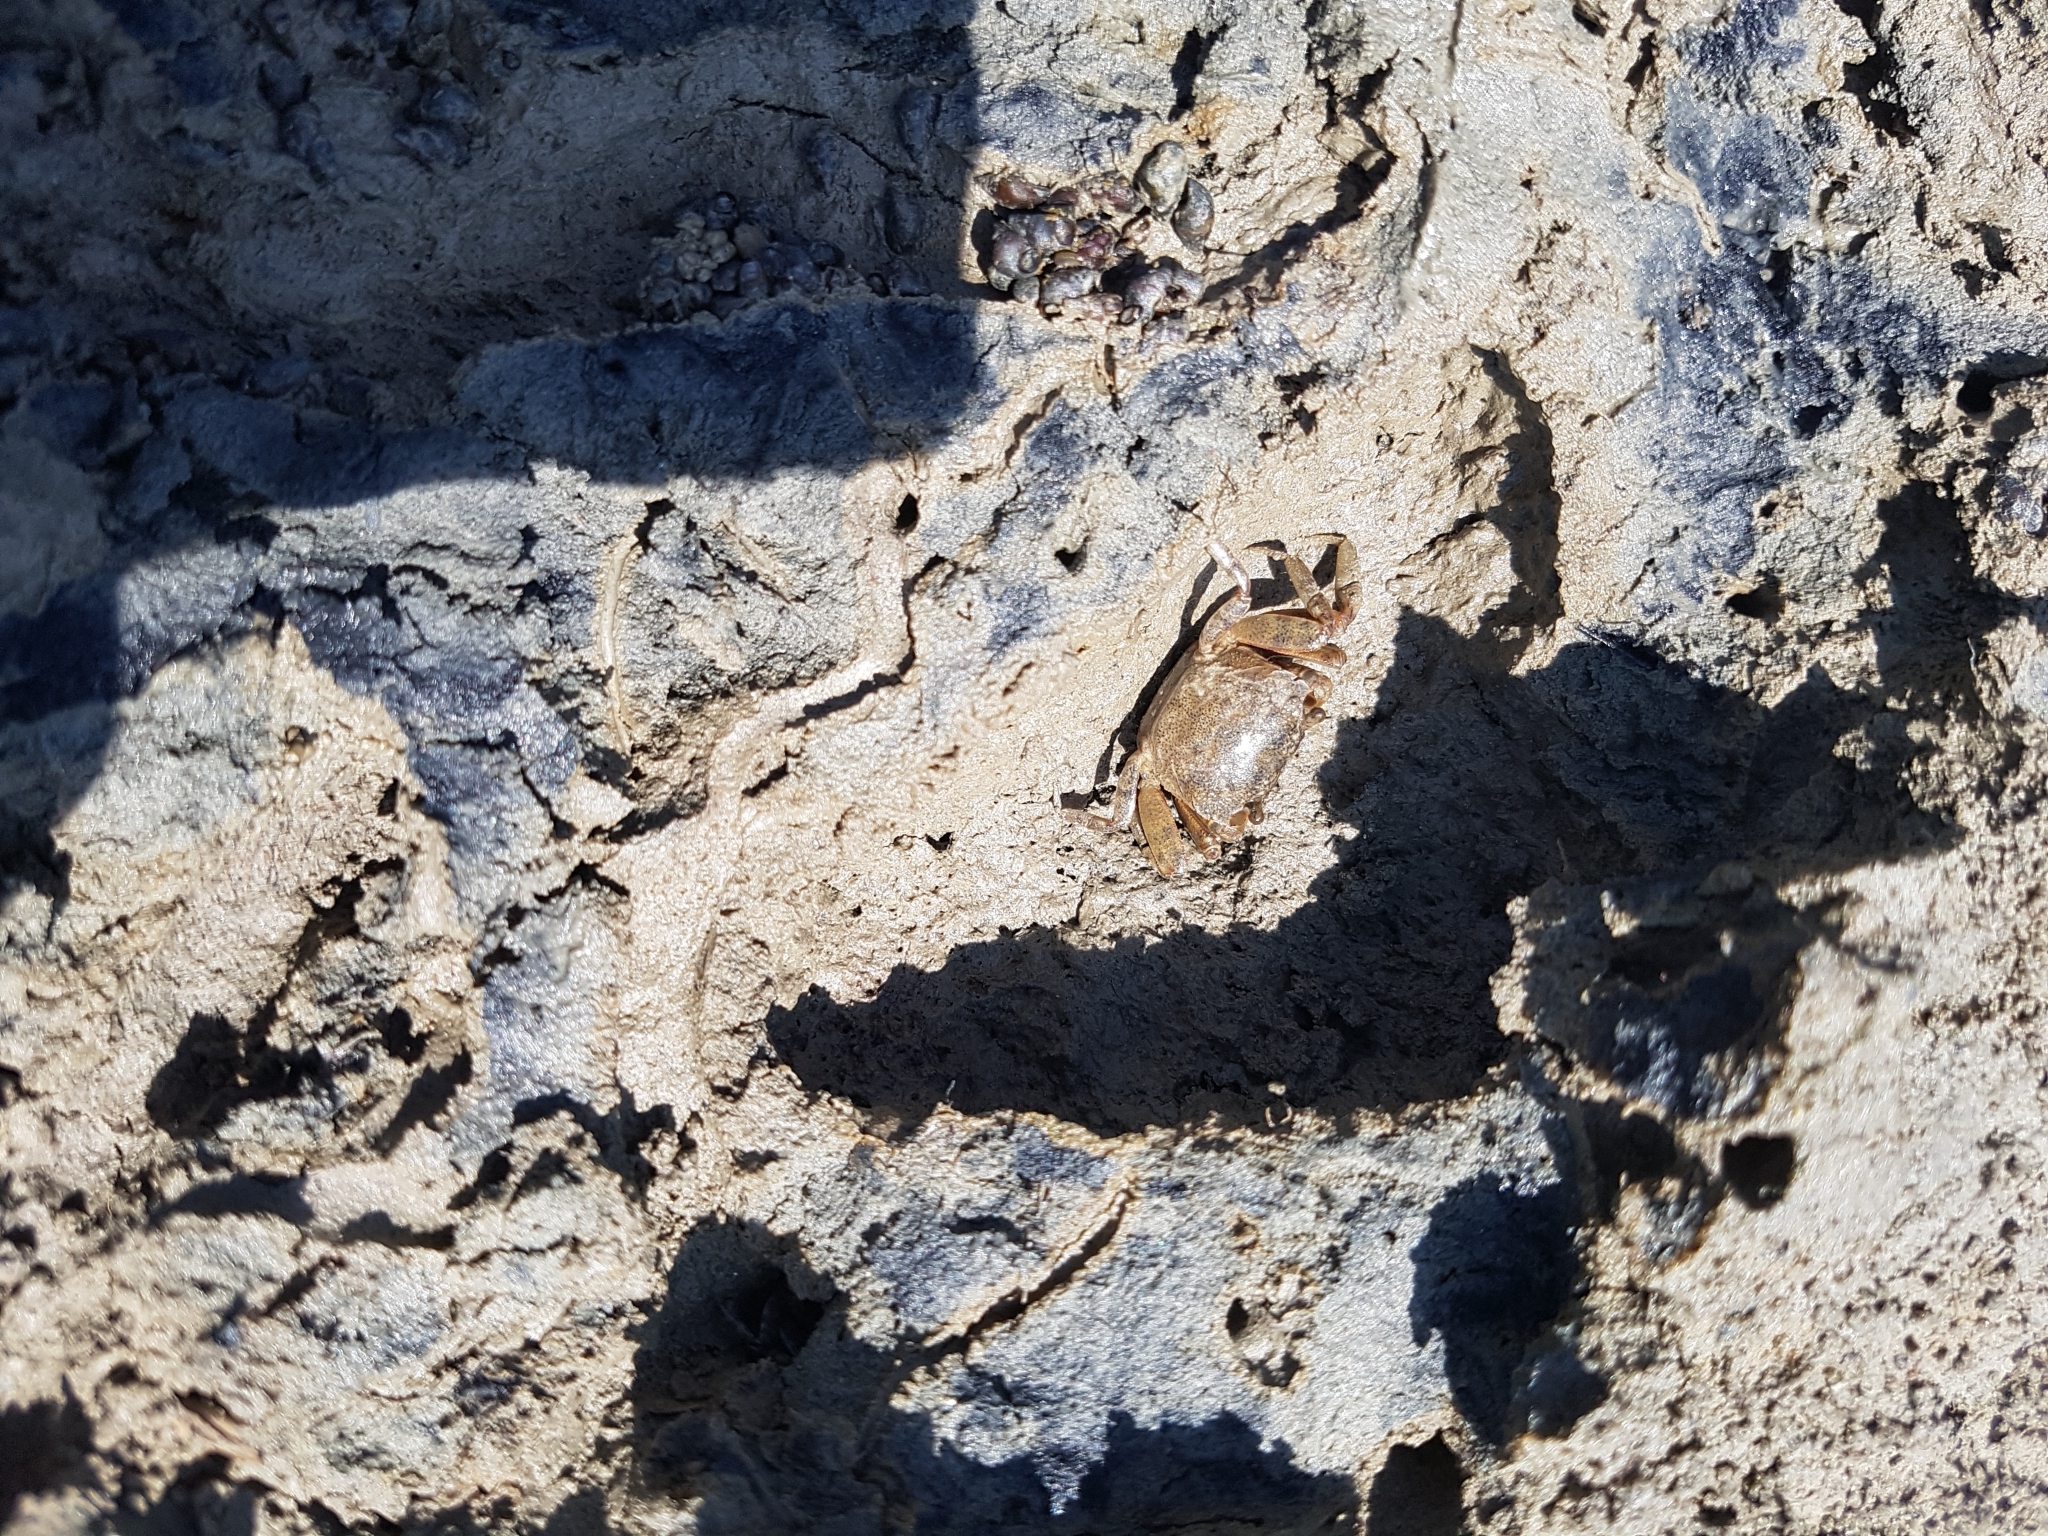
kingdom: Animalia
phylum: Arthropoda
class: Malacostraca
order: Decapoda
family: Varunidae
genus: Austrohelice
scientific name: Austrohelice crassa
